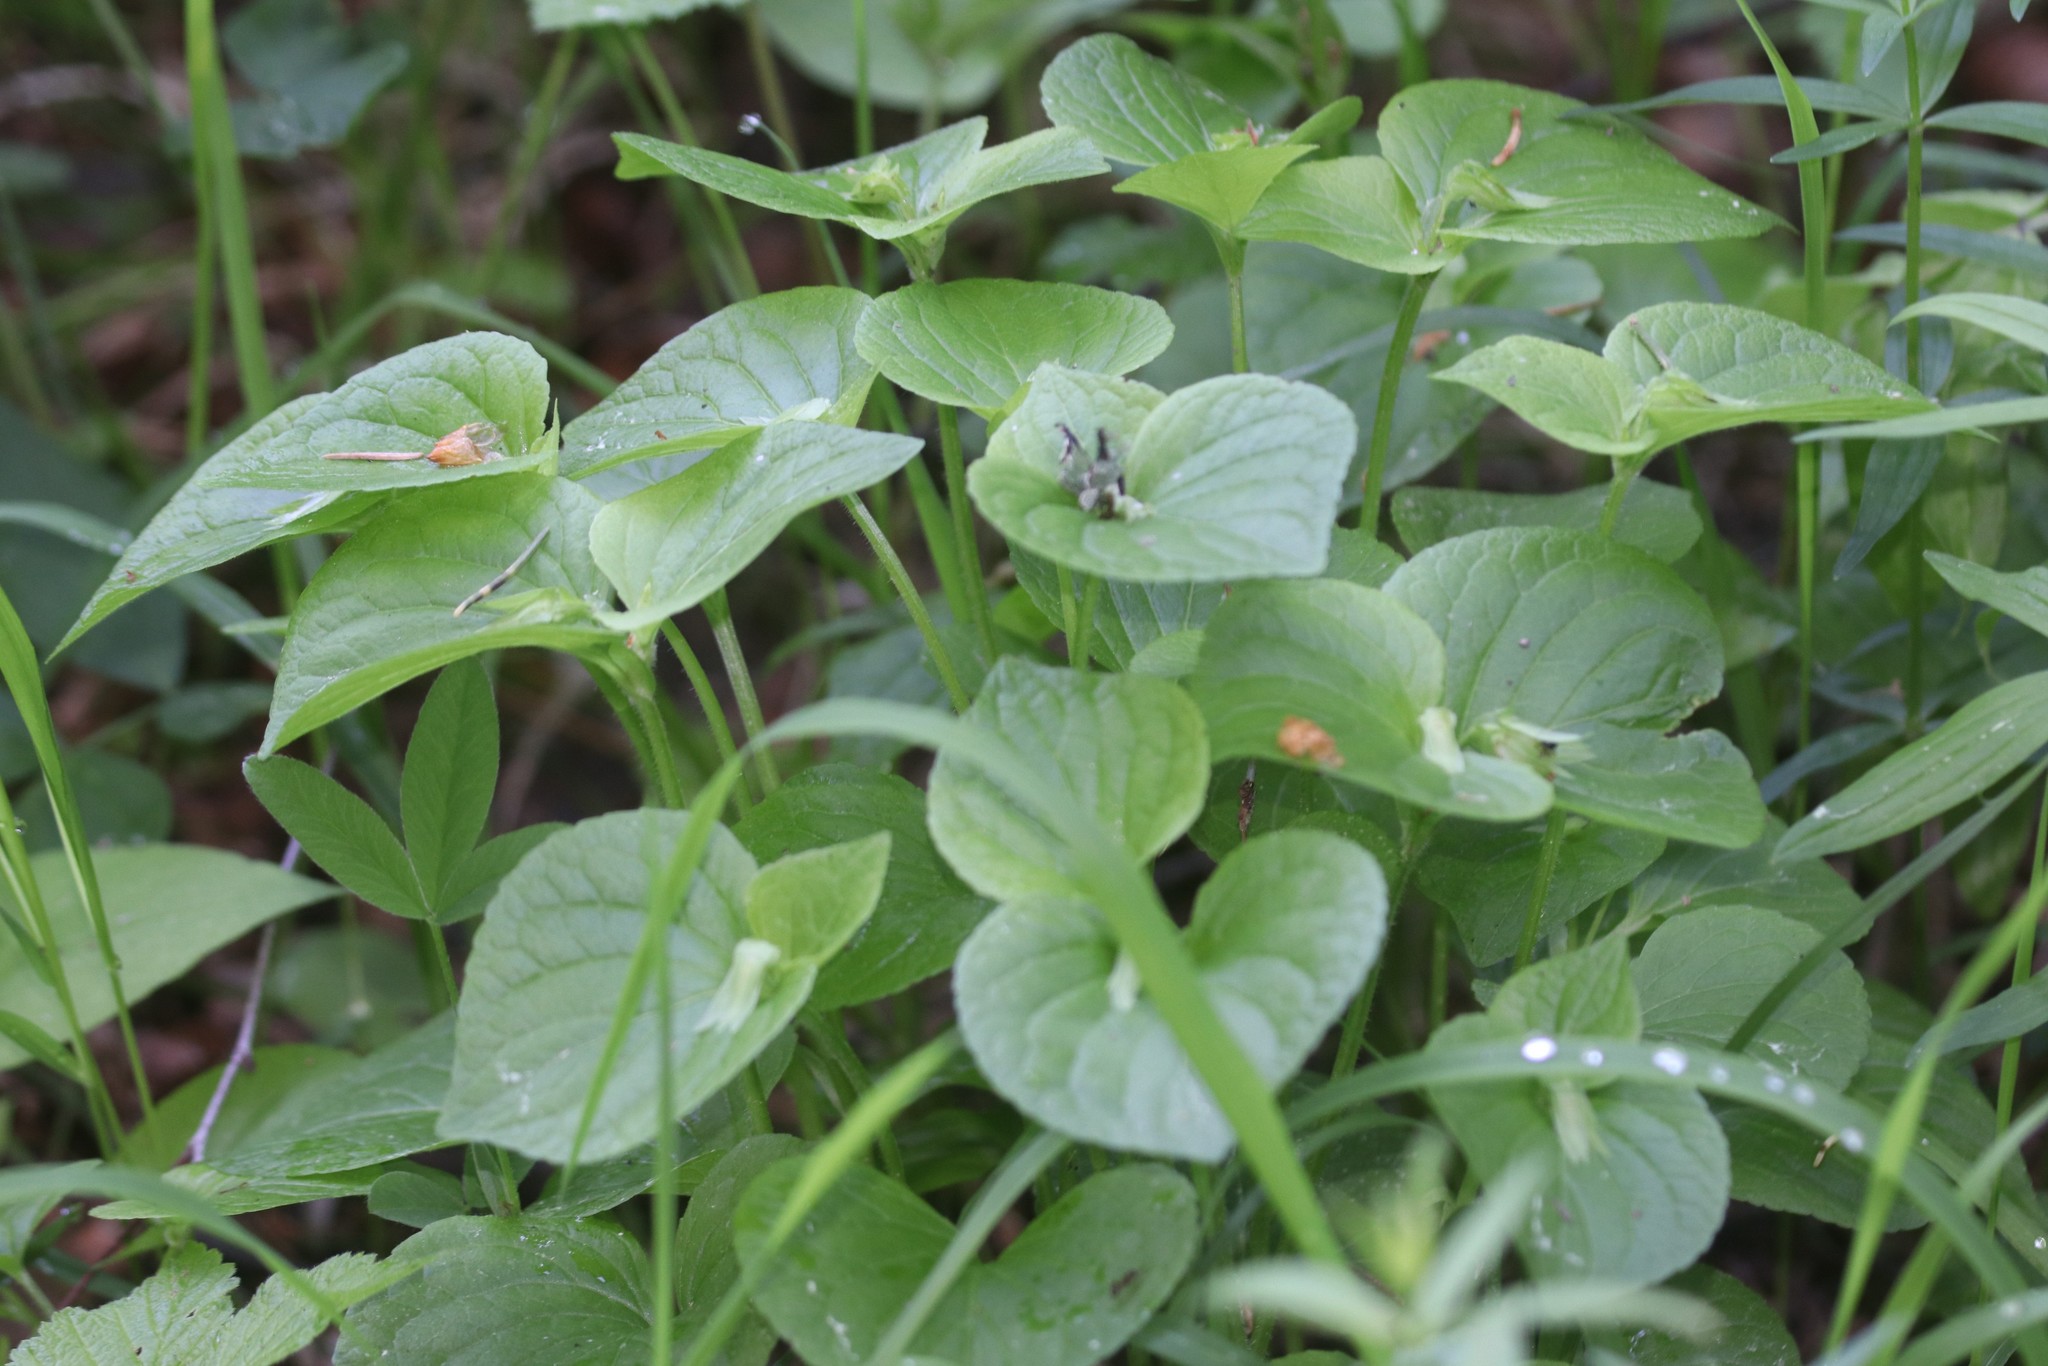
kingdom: Plantae
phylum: Tracheophyta
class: Magnoliopsida
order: Malpighiales
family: Violaceae
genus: Viola
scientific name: Viola mirabilis
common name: Wonder violet
